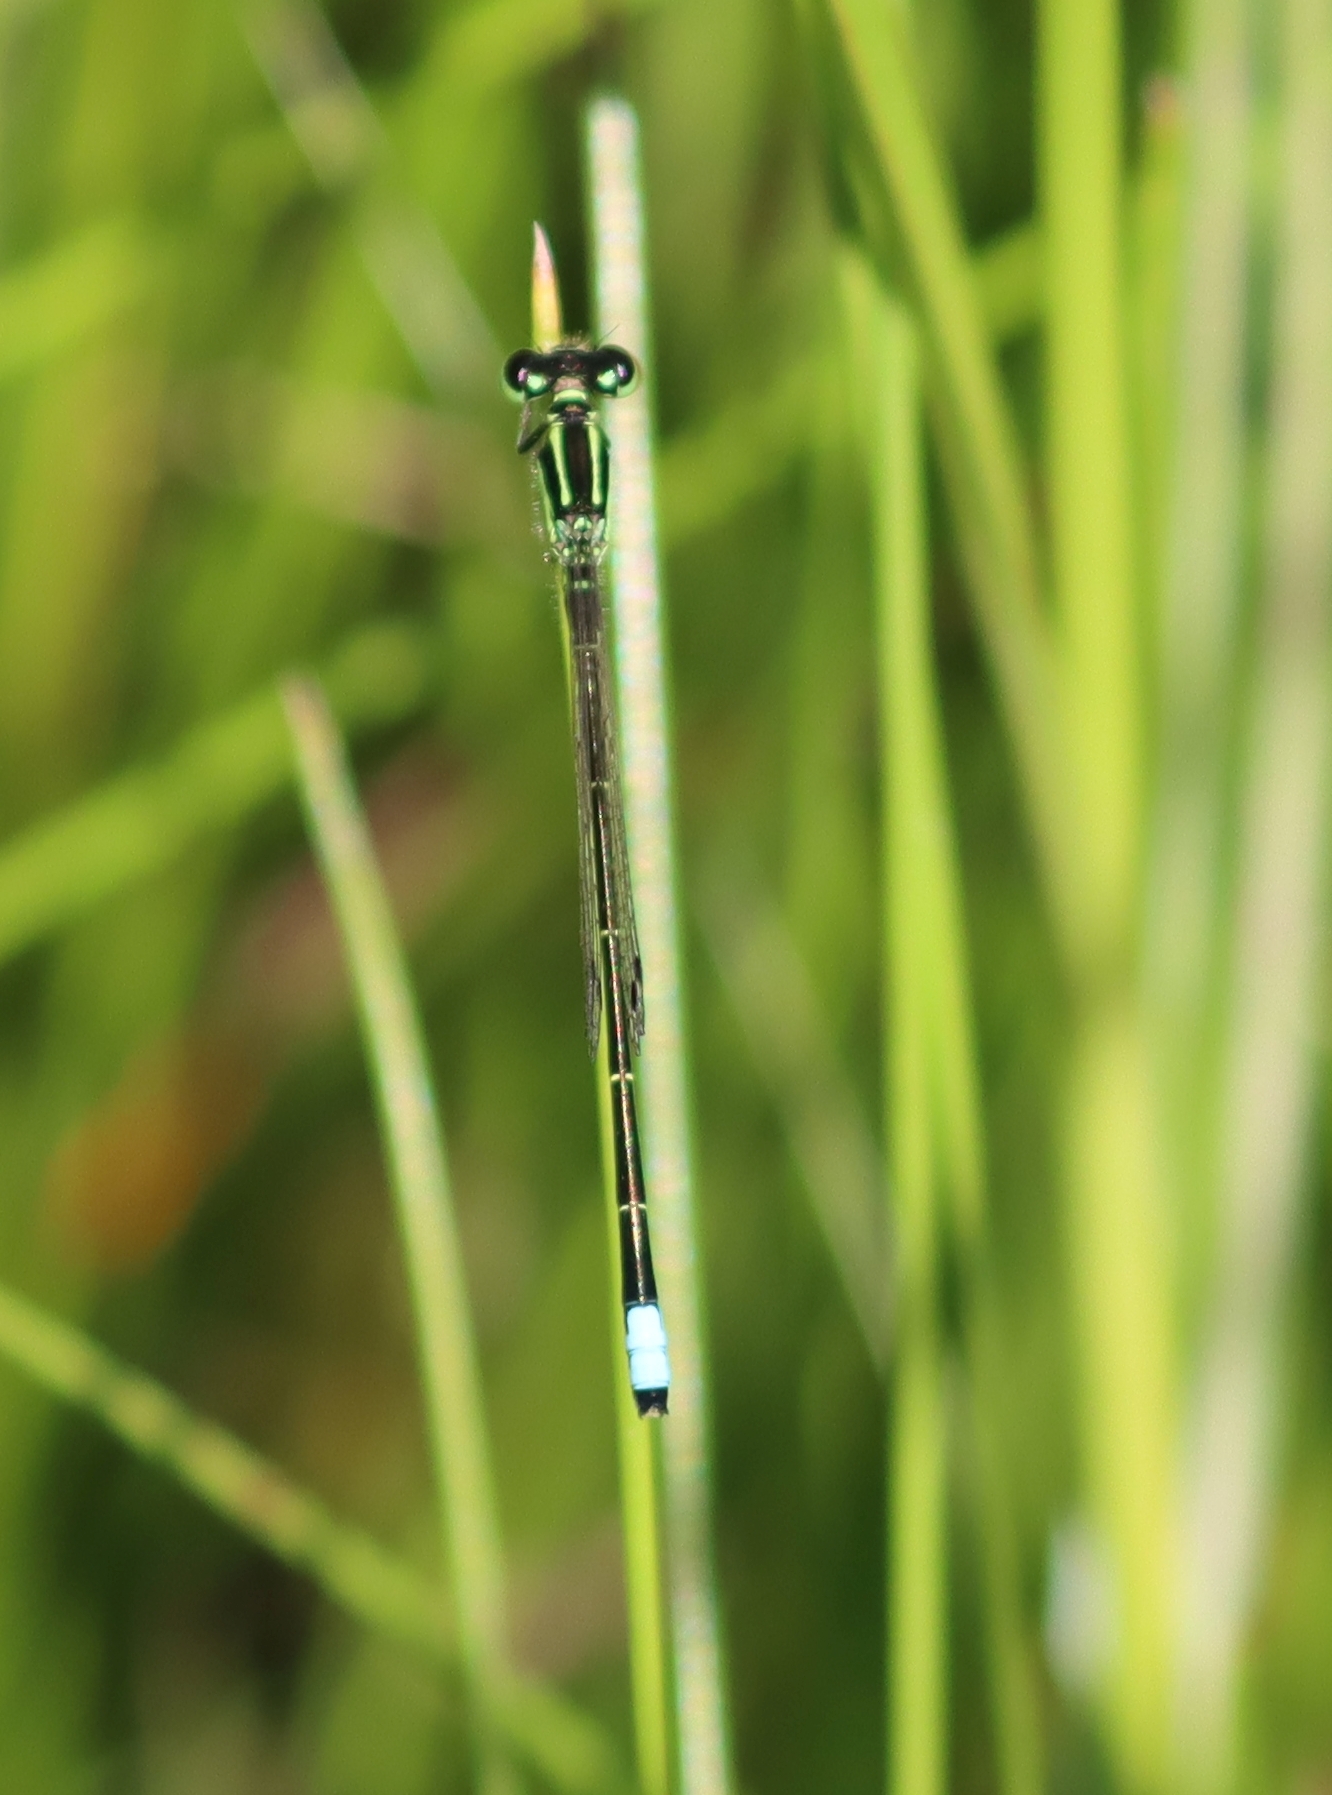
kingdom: Animalia
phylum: Arthropoda
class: Insecta
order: Odonata
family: Coenagrionidae
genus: Ischnura
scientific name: Ischnura verticalis
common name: Eastern forktail
